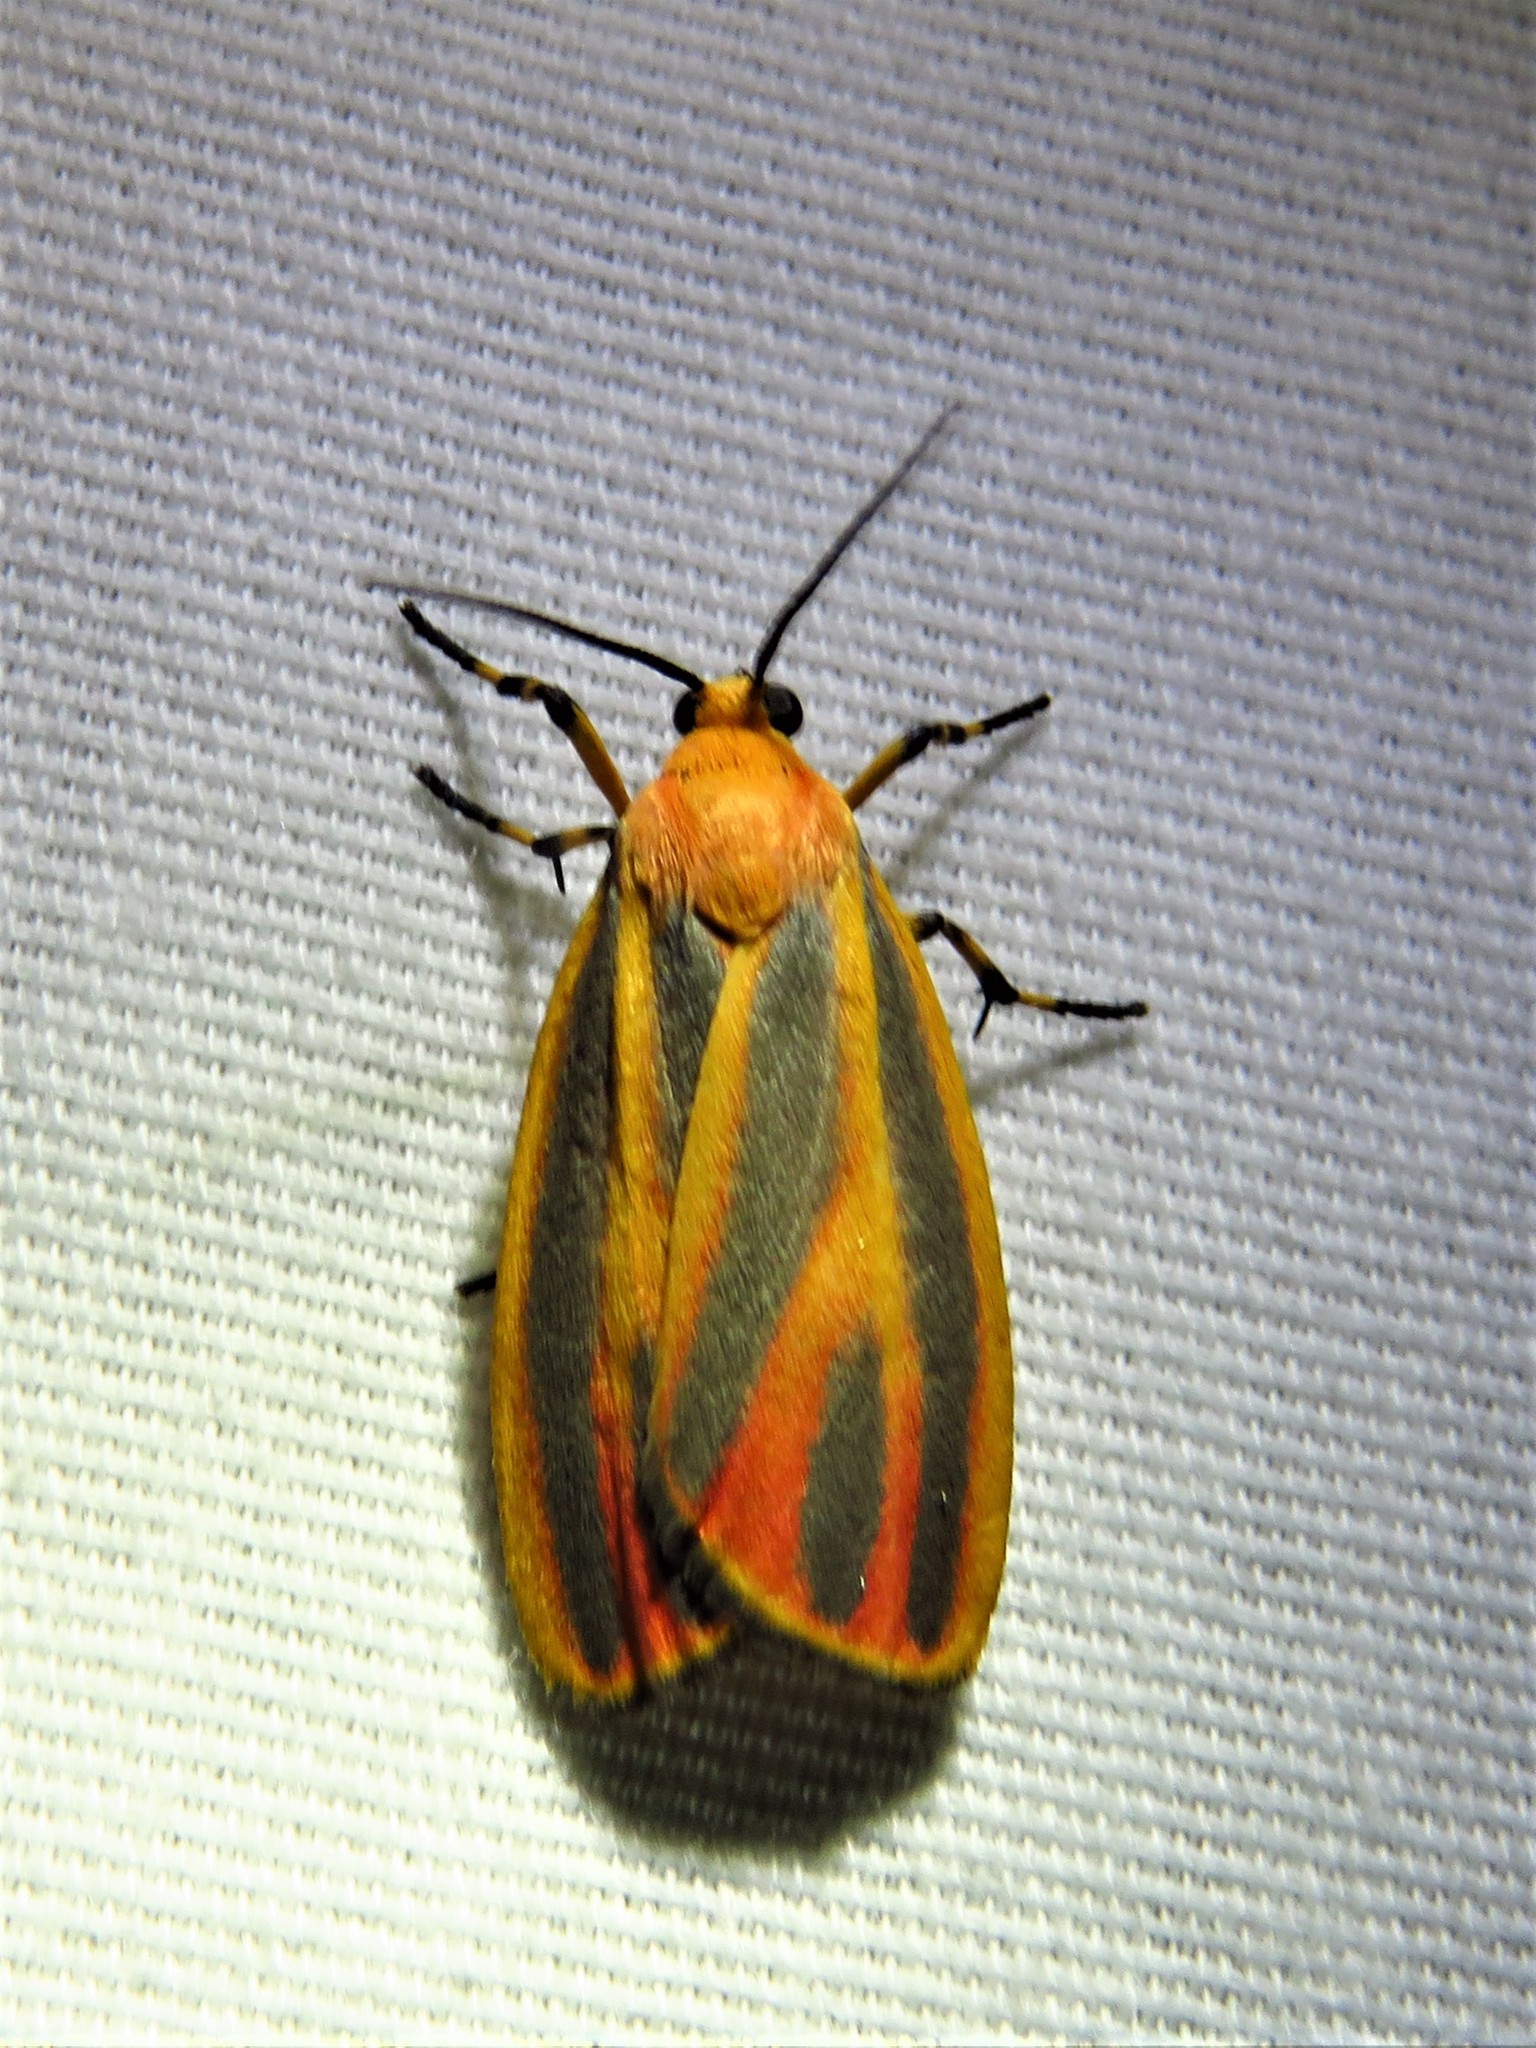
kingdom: Animalia
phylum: Arthropoda
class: Insecta
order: Lepidoptera
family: Erebidae
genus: Hypoprepia
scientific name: Hypoprepia fucosa
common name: Painted lichen moth
